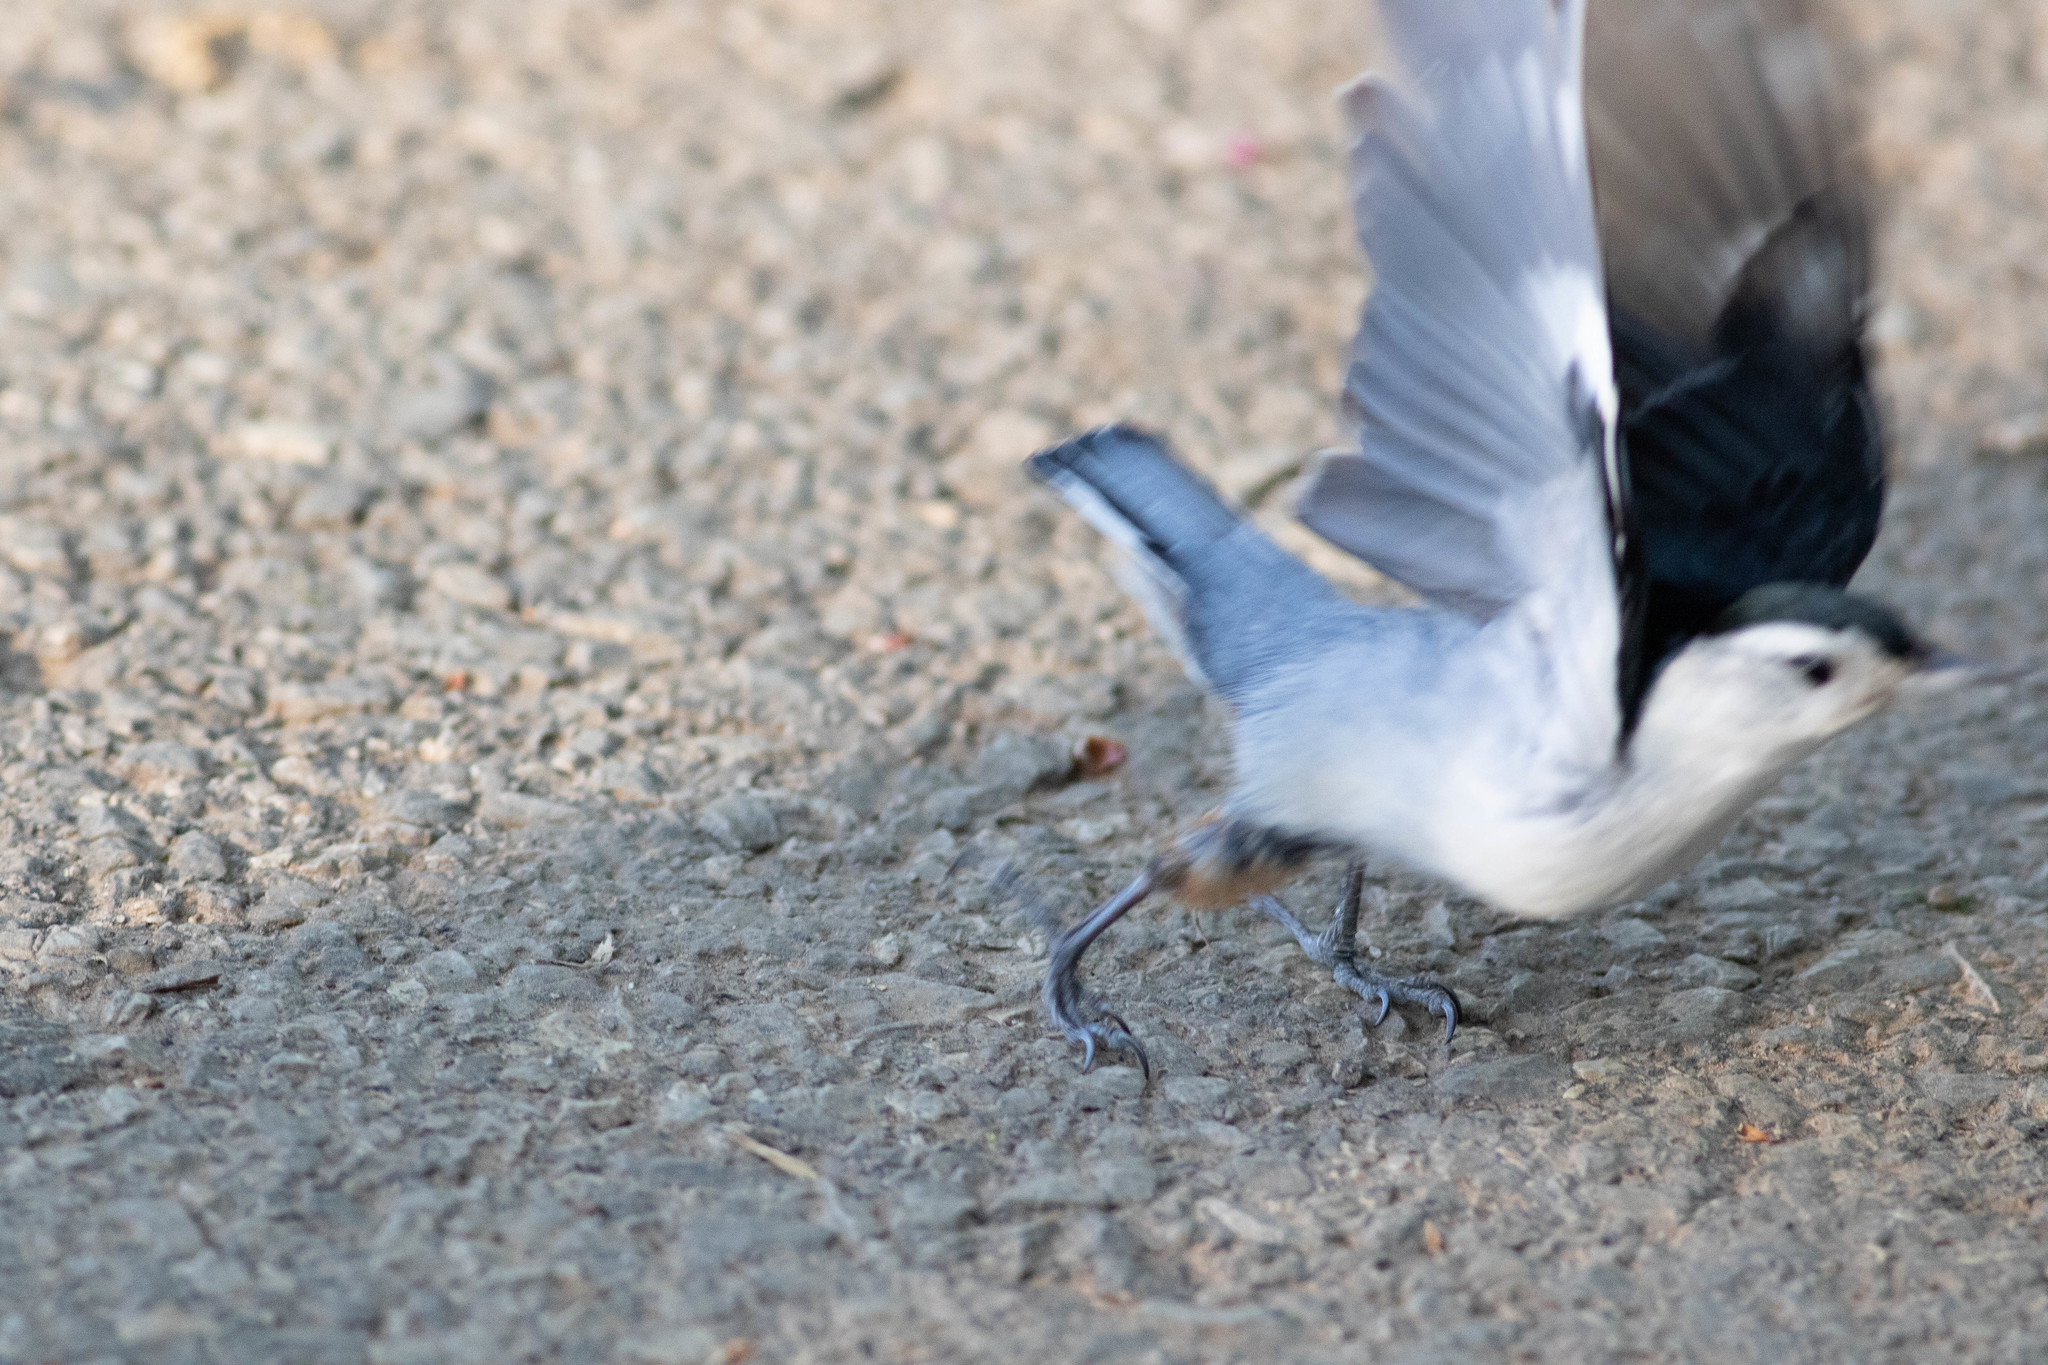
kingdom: Animalia
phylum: Chordata
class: Aves
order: Passeriformes
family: Sittidae
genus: Sitta
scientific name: Sitta carolinensis
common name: White-breasted nuthatch
